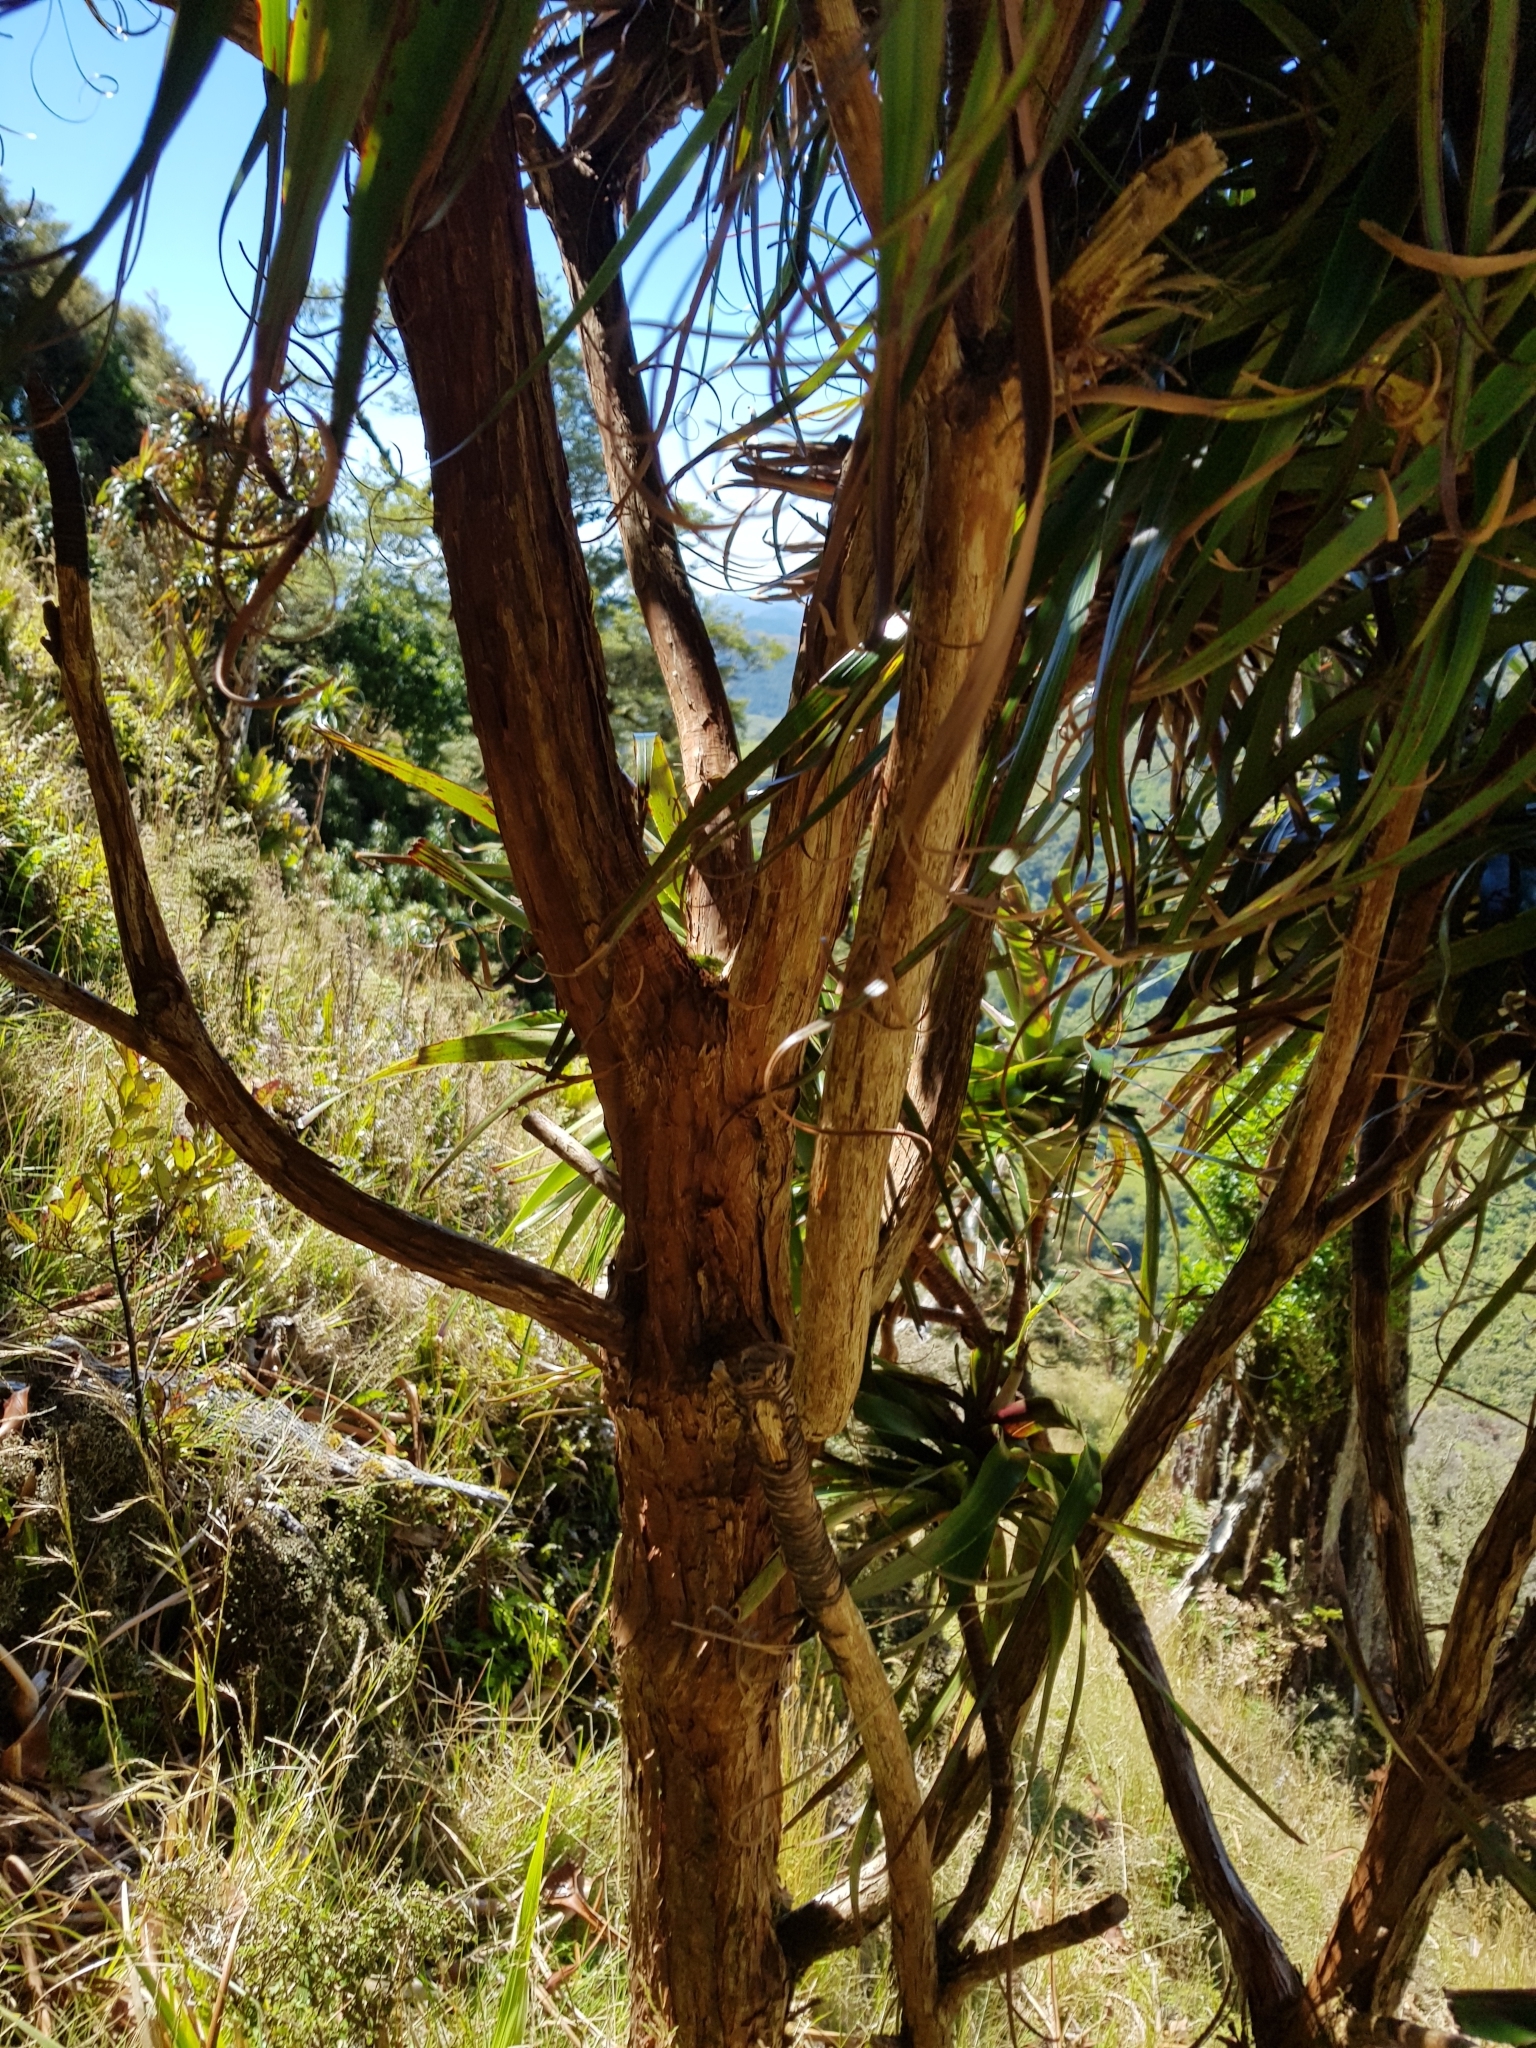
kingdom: Plantae
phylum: Tracheophyta
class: Magnoliopsida
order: Ericales
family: Ericaceae
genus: Dracophyllum
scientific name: Dracophyllum traversii
